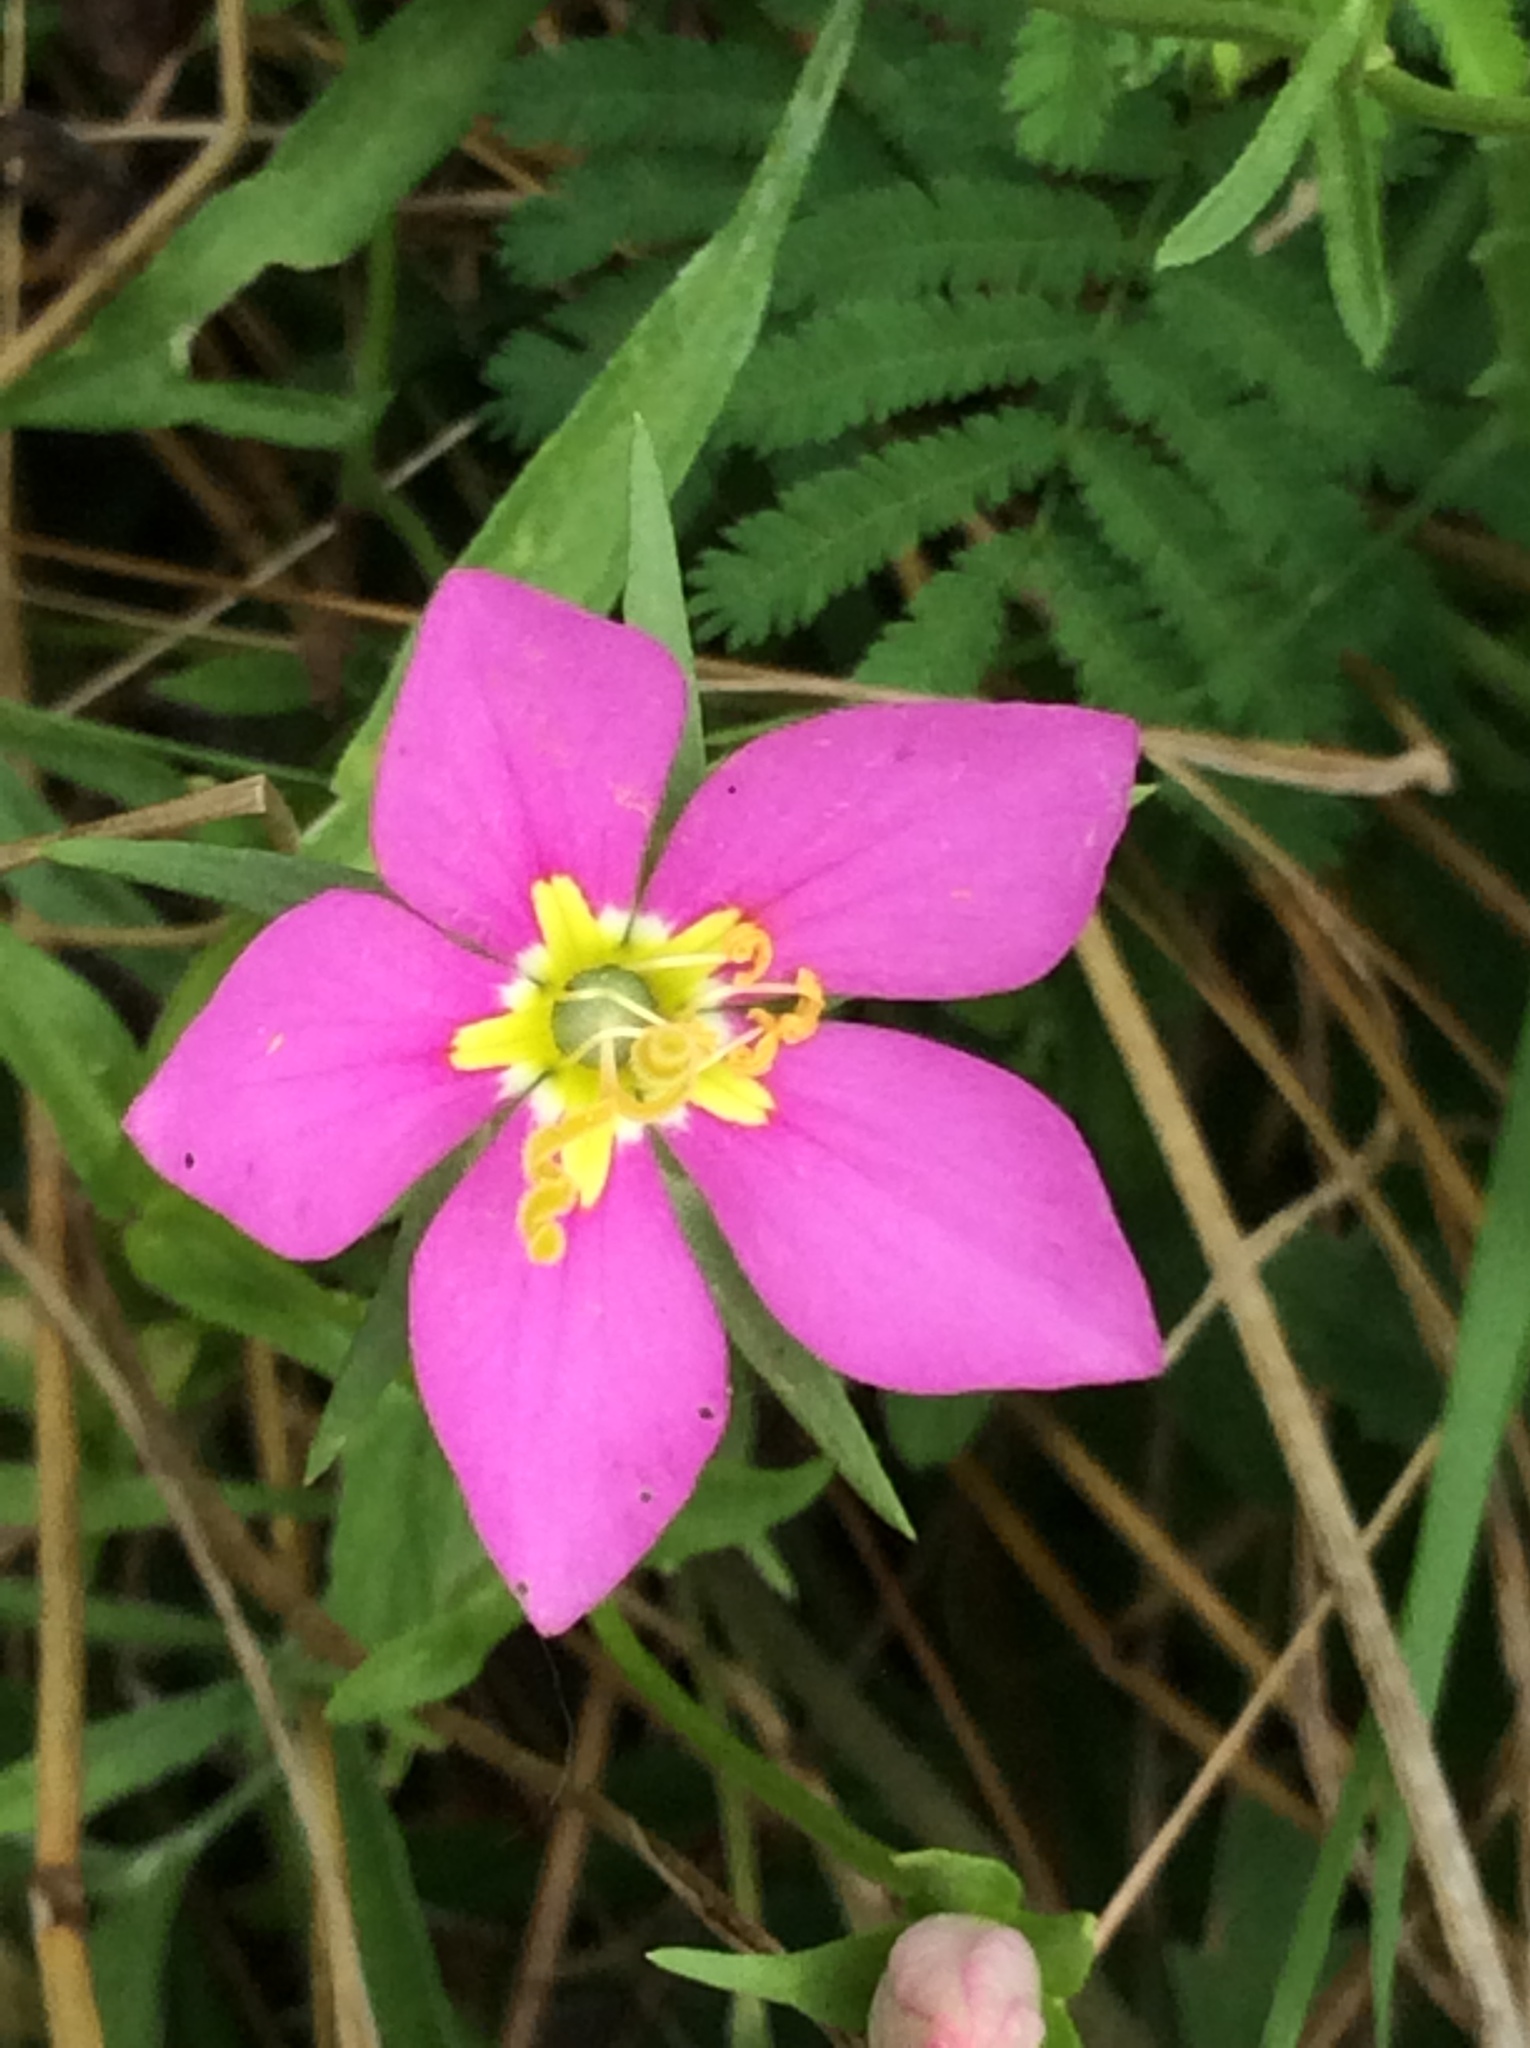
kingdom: Plantae
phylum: Tracheophyta
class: Magnoliopsida
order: Gentianales
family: Gentianaceae
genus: Sabatia
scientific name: Sabatia campestris
